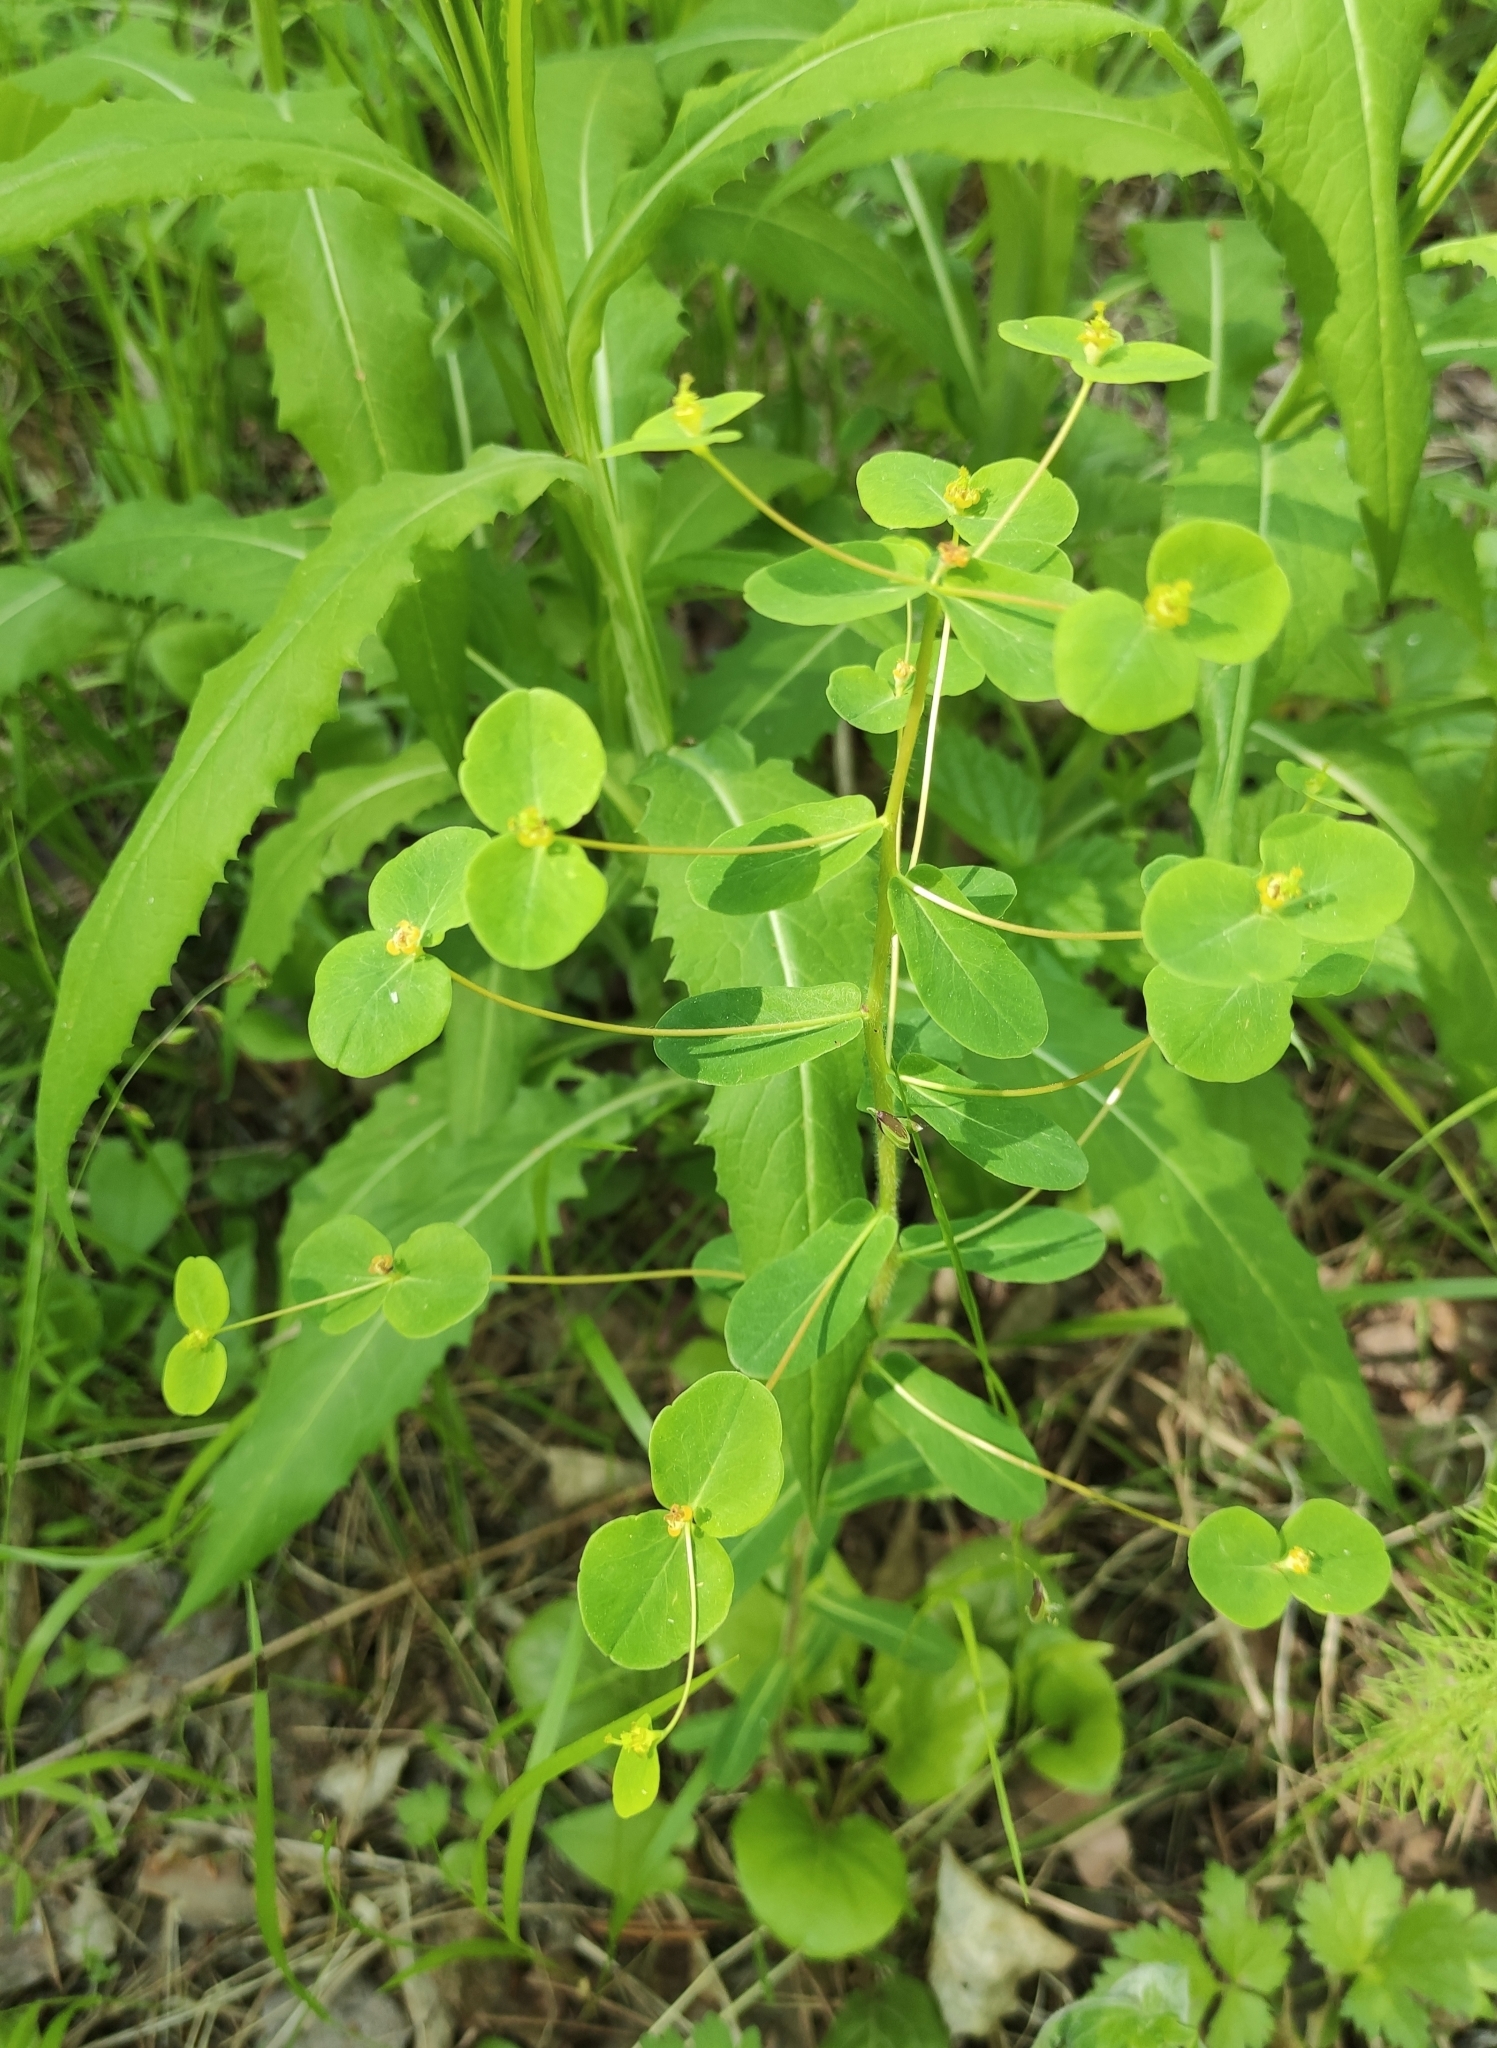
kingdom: Plantae
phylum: Tracheophyta
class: Magnoliopsida
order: Malpighiales
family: Euphorbiaceae
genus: Euphorbia
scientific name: Euphorbia jenisseiensis
